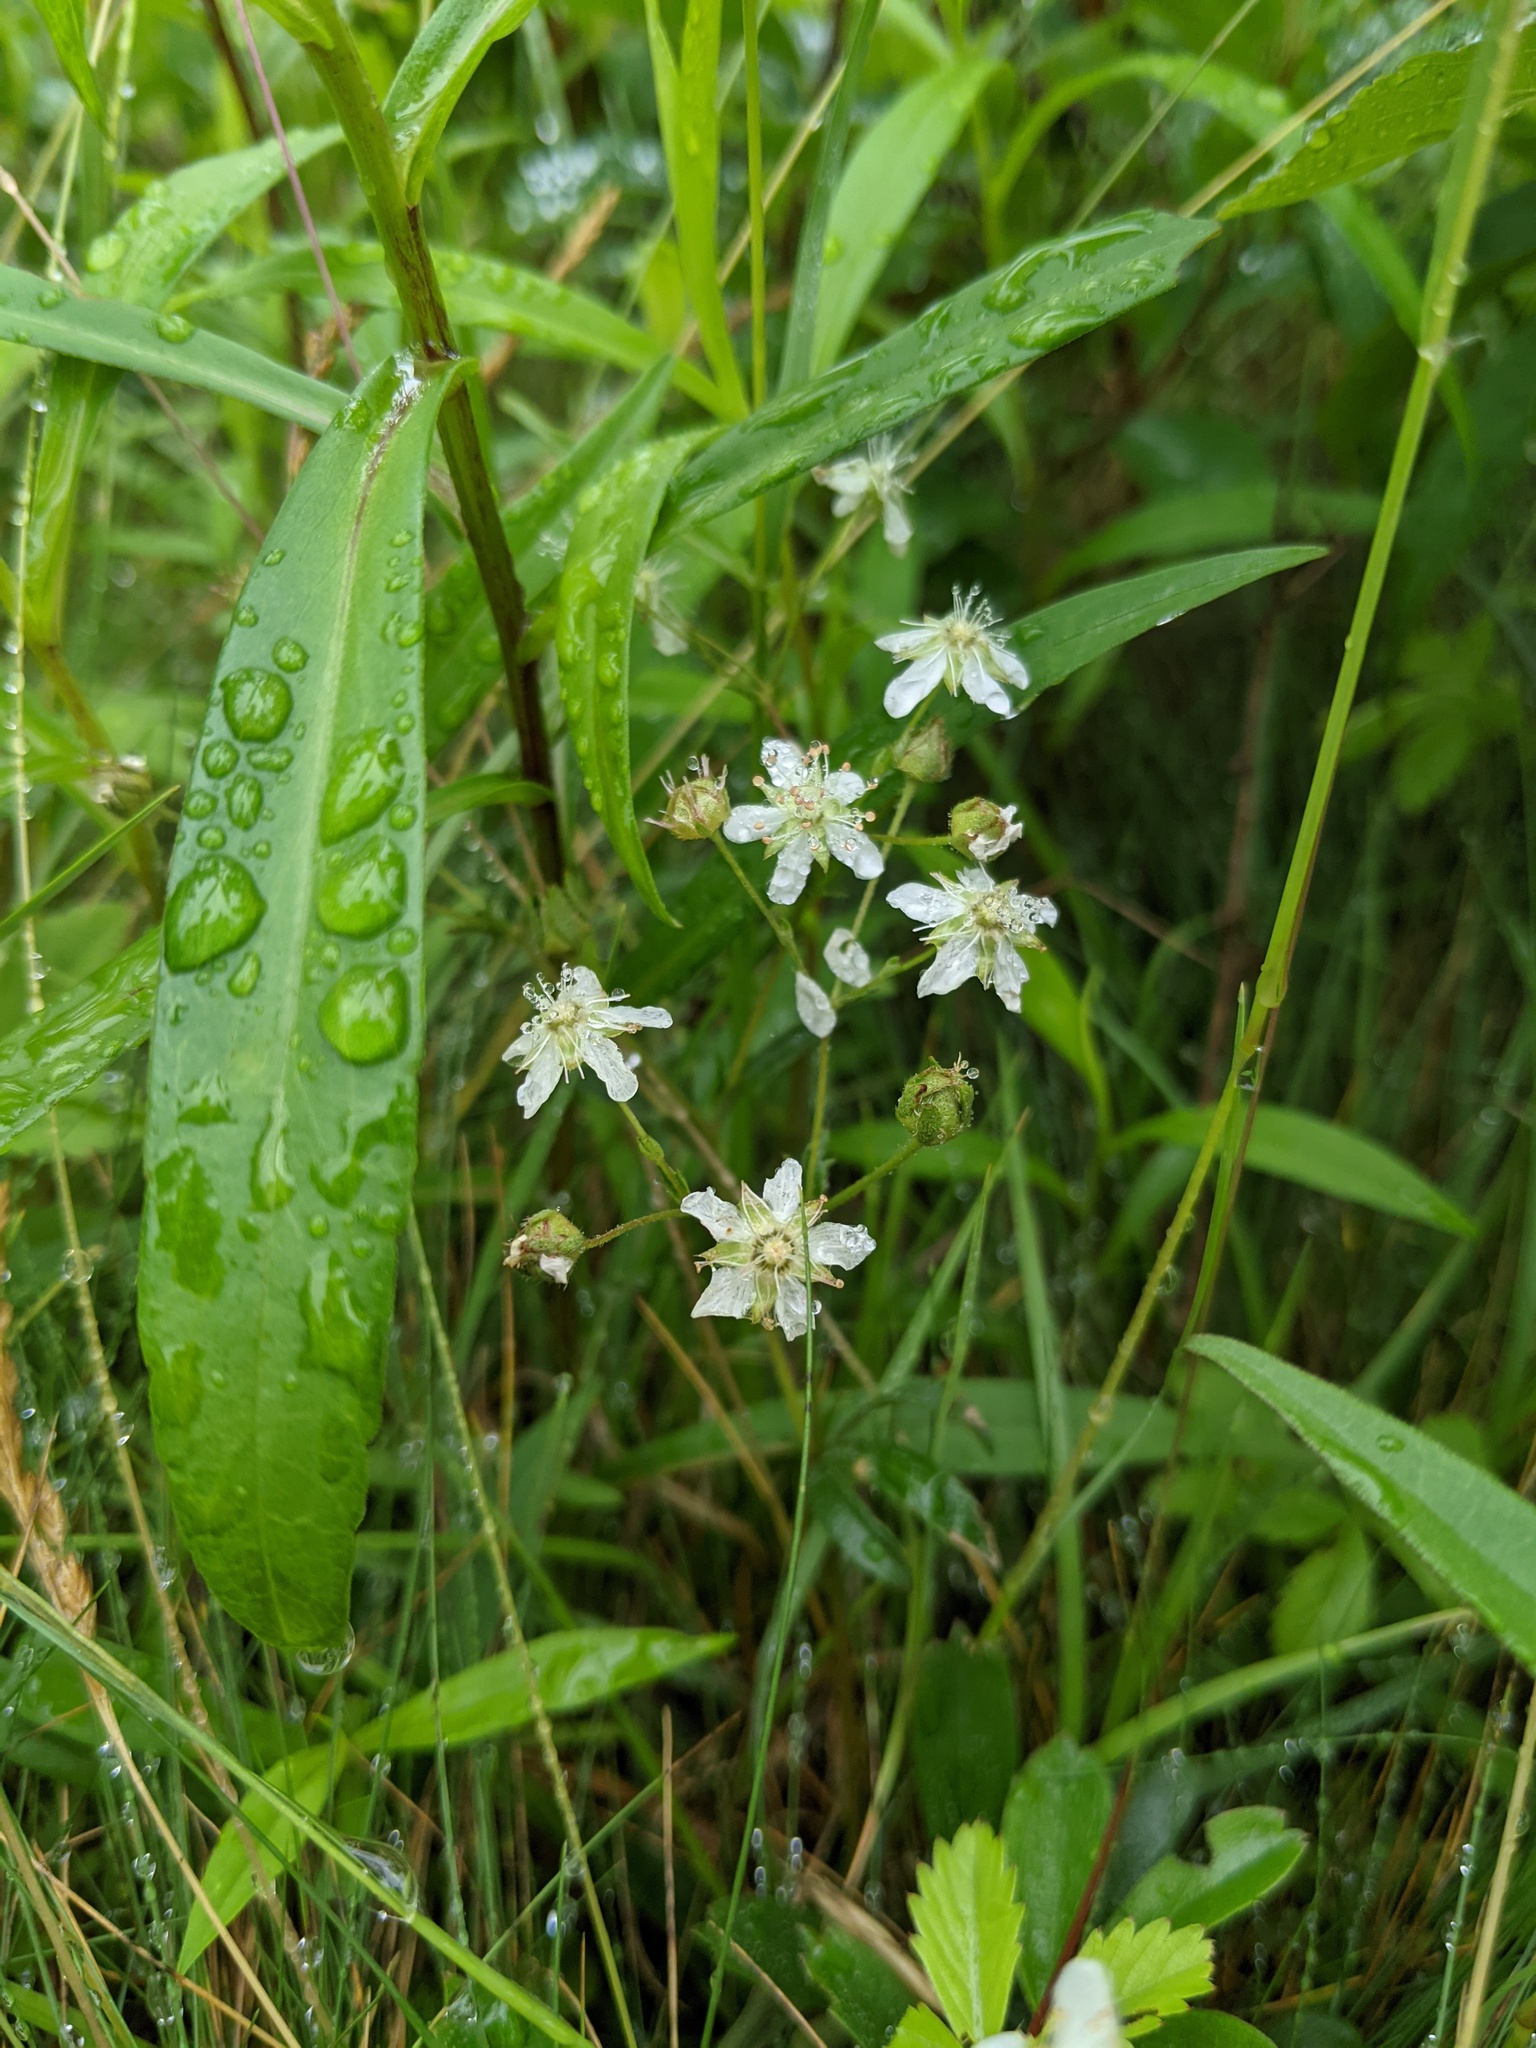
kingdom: Plantae
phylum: Tracheophyta
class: Magnoliopsida
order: Rosales
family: Rosaceae
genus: Sibbaldia
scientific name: Sibbaldia tridentata
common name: Three-toothed cinquefoil
